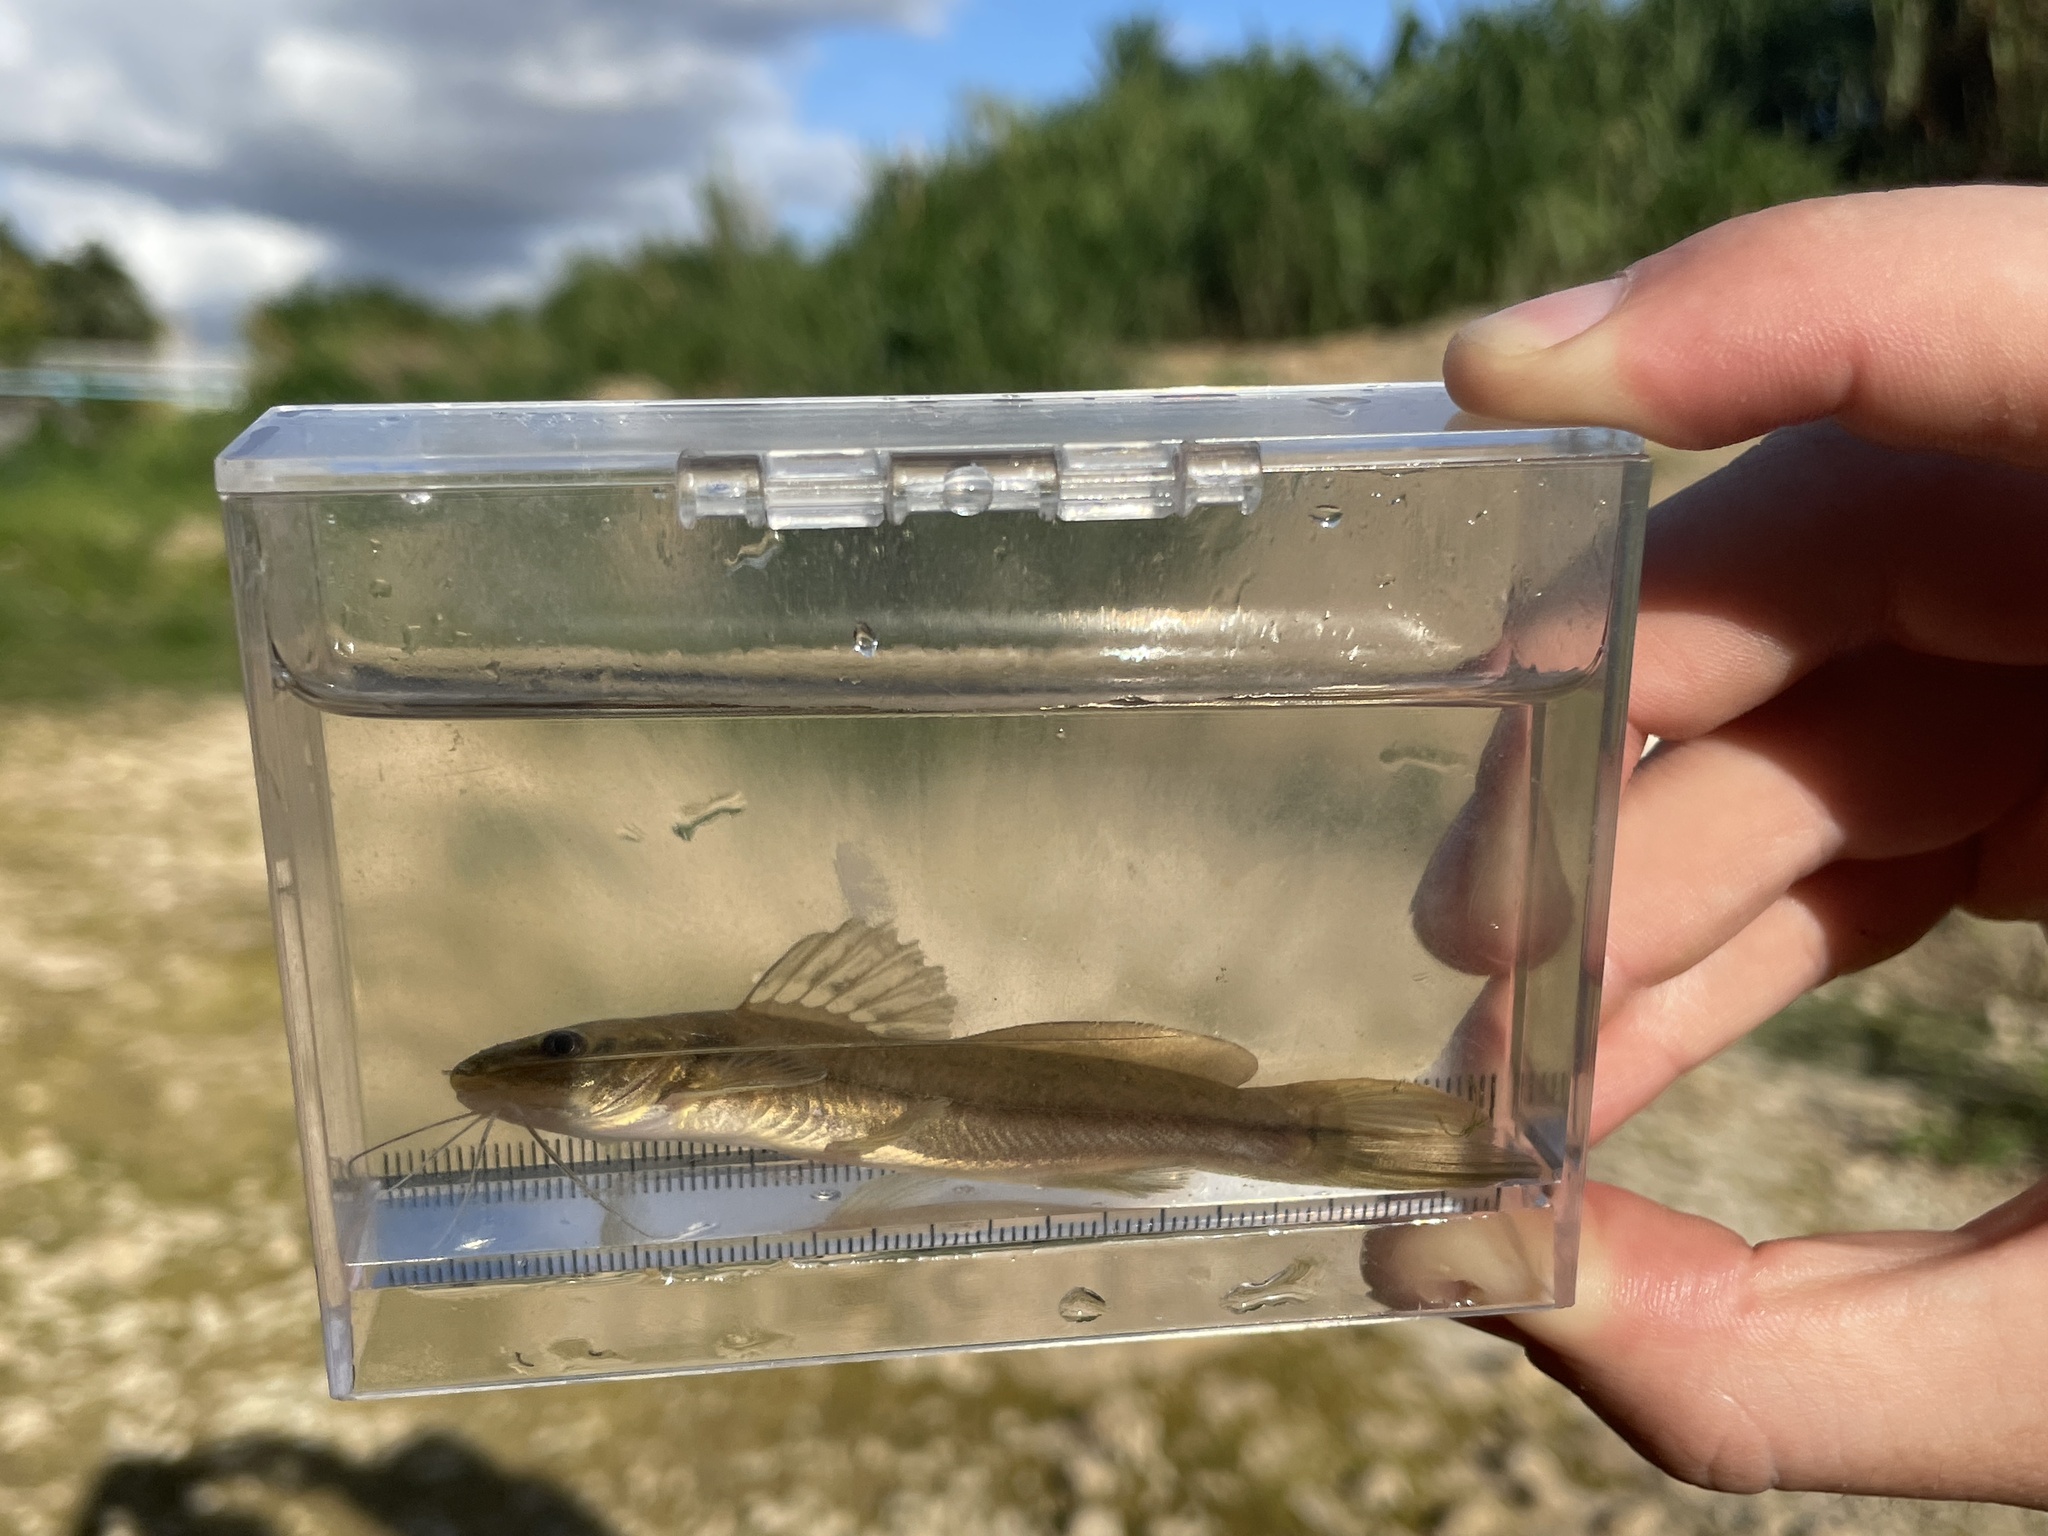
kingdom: Animalia
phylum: Chordata
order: Siluriformes
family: Heptapteridae
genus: Rhamdia
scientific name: Rhamdia quelen
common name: Catfish
